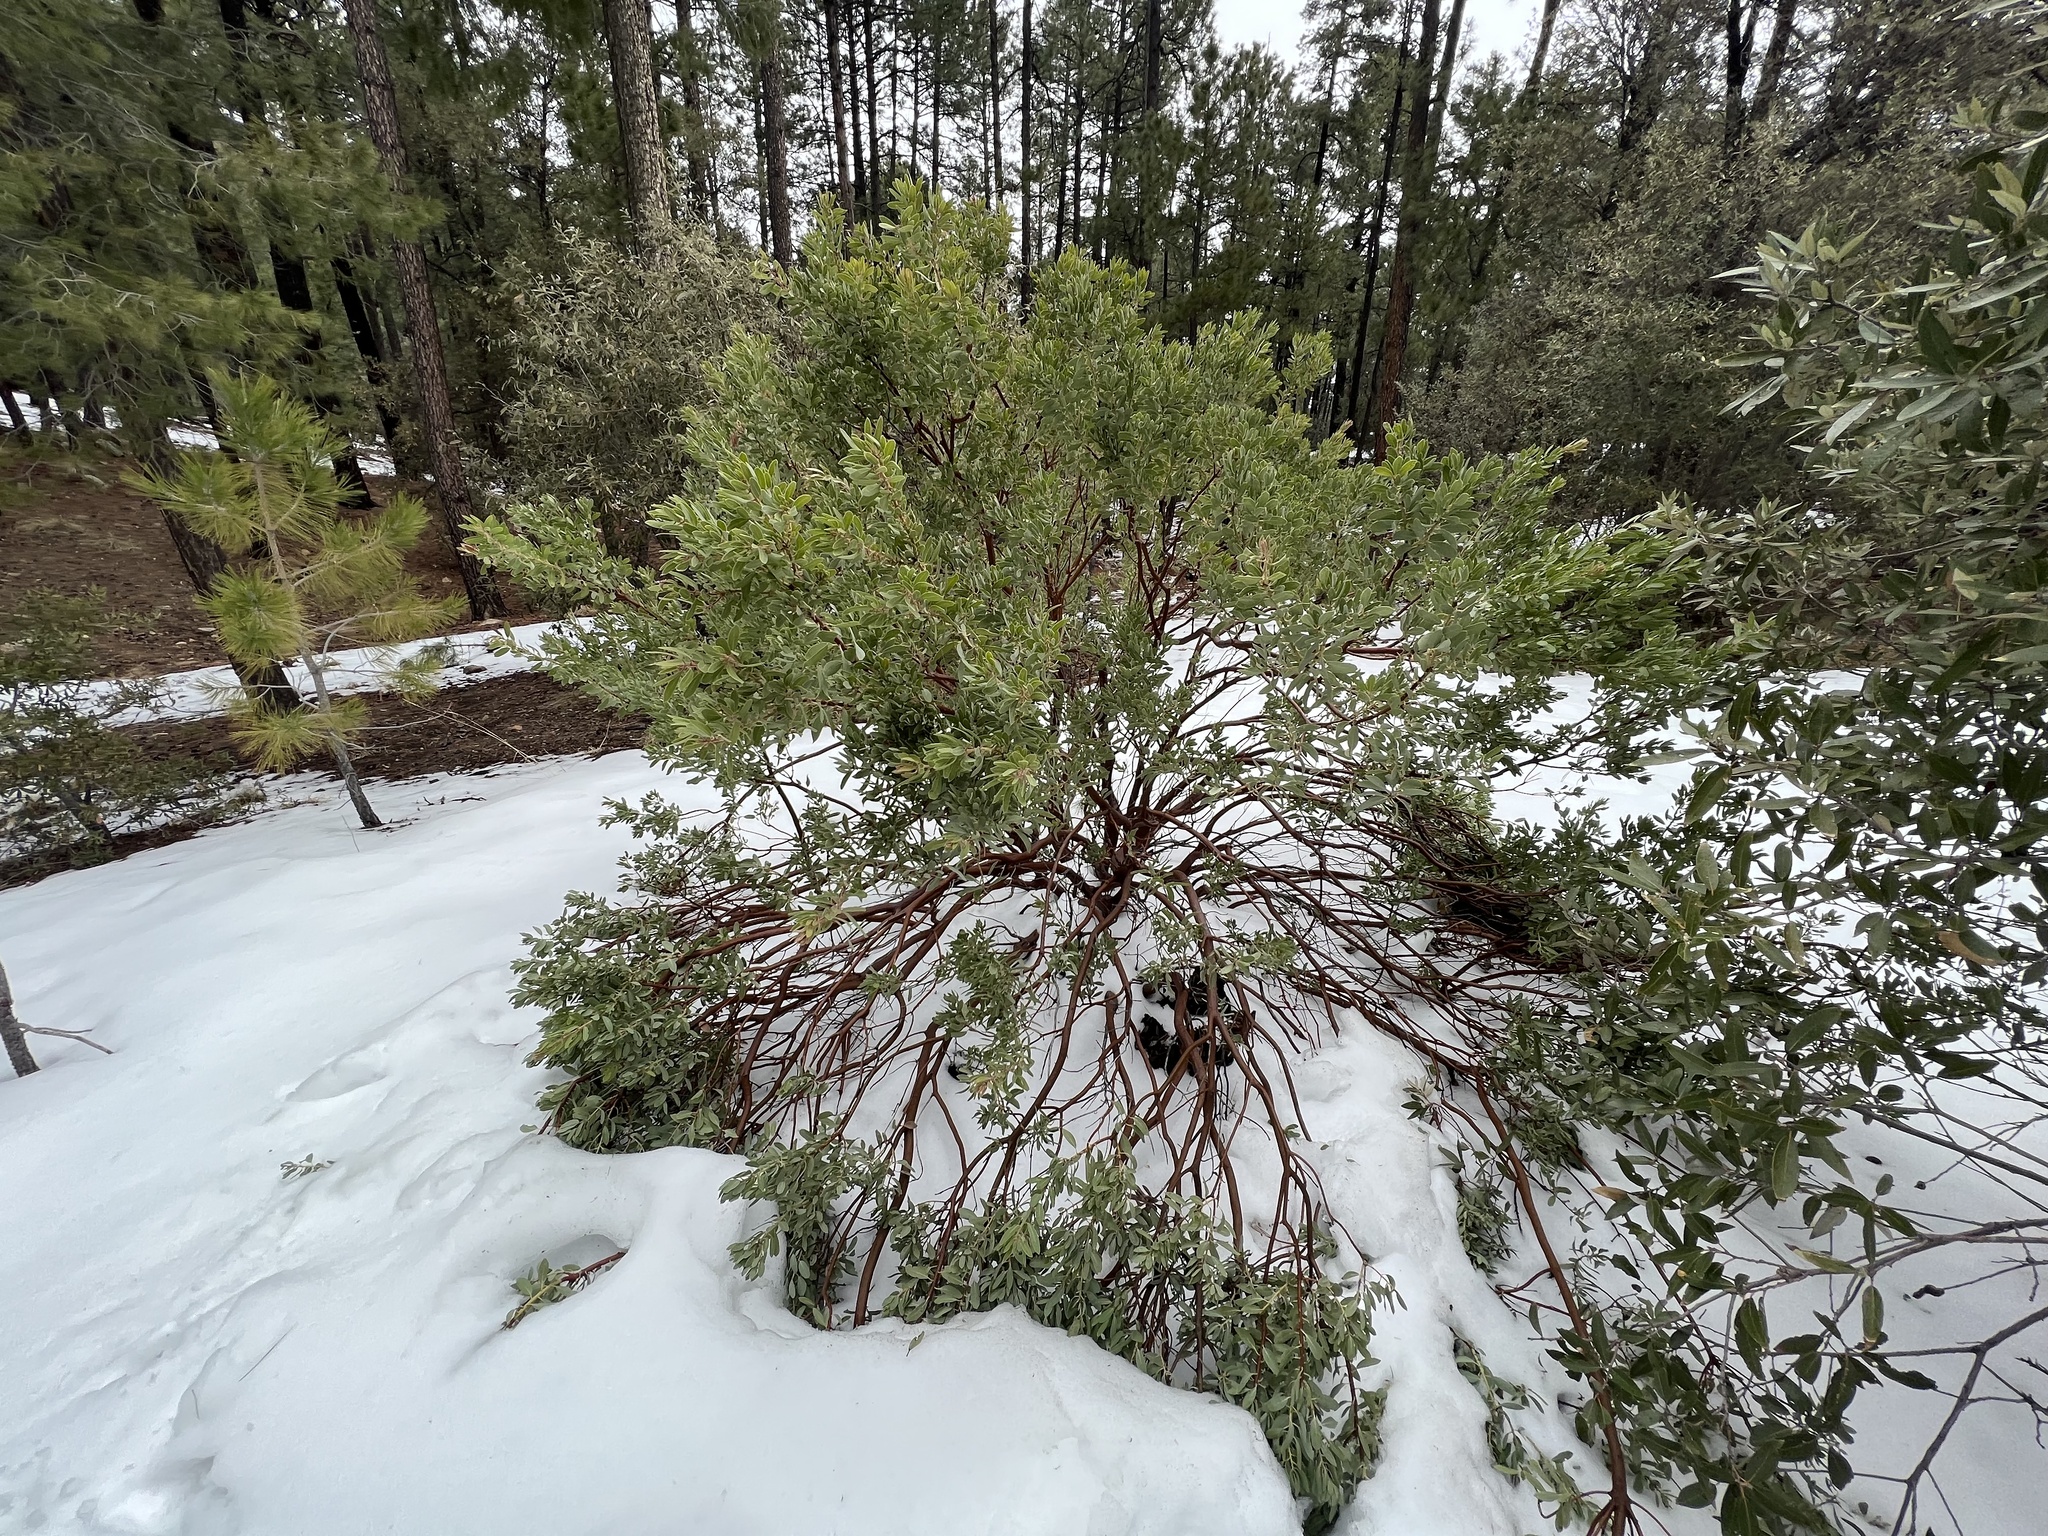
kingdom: Plantae
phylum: Tracheophyta
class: Magnoliopsida
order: Ericales
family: Ericaceae
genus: Arctostaphylos
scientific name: Arctostaphylos pringlei
